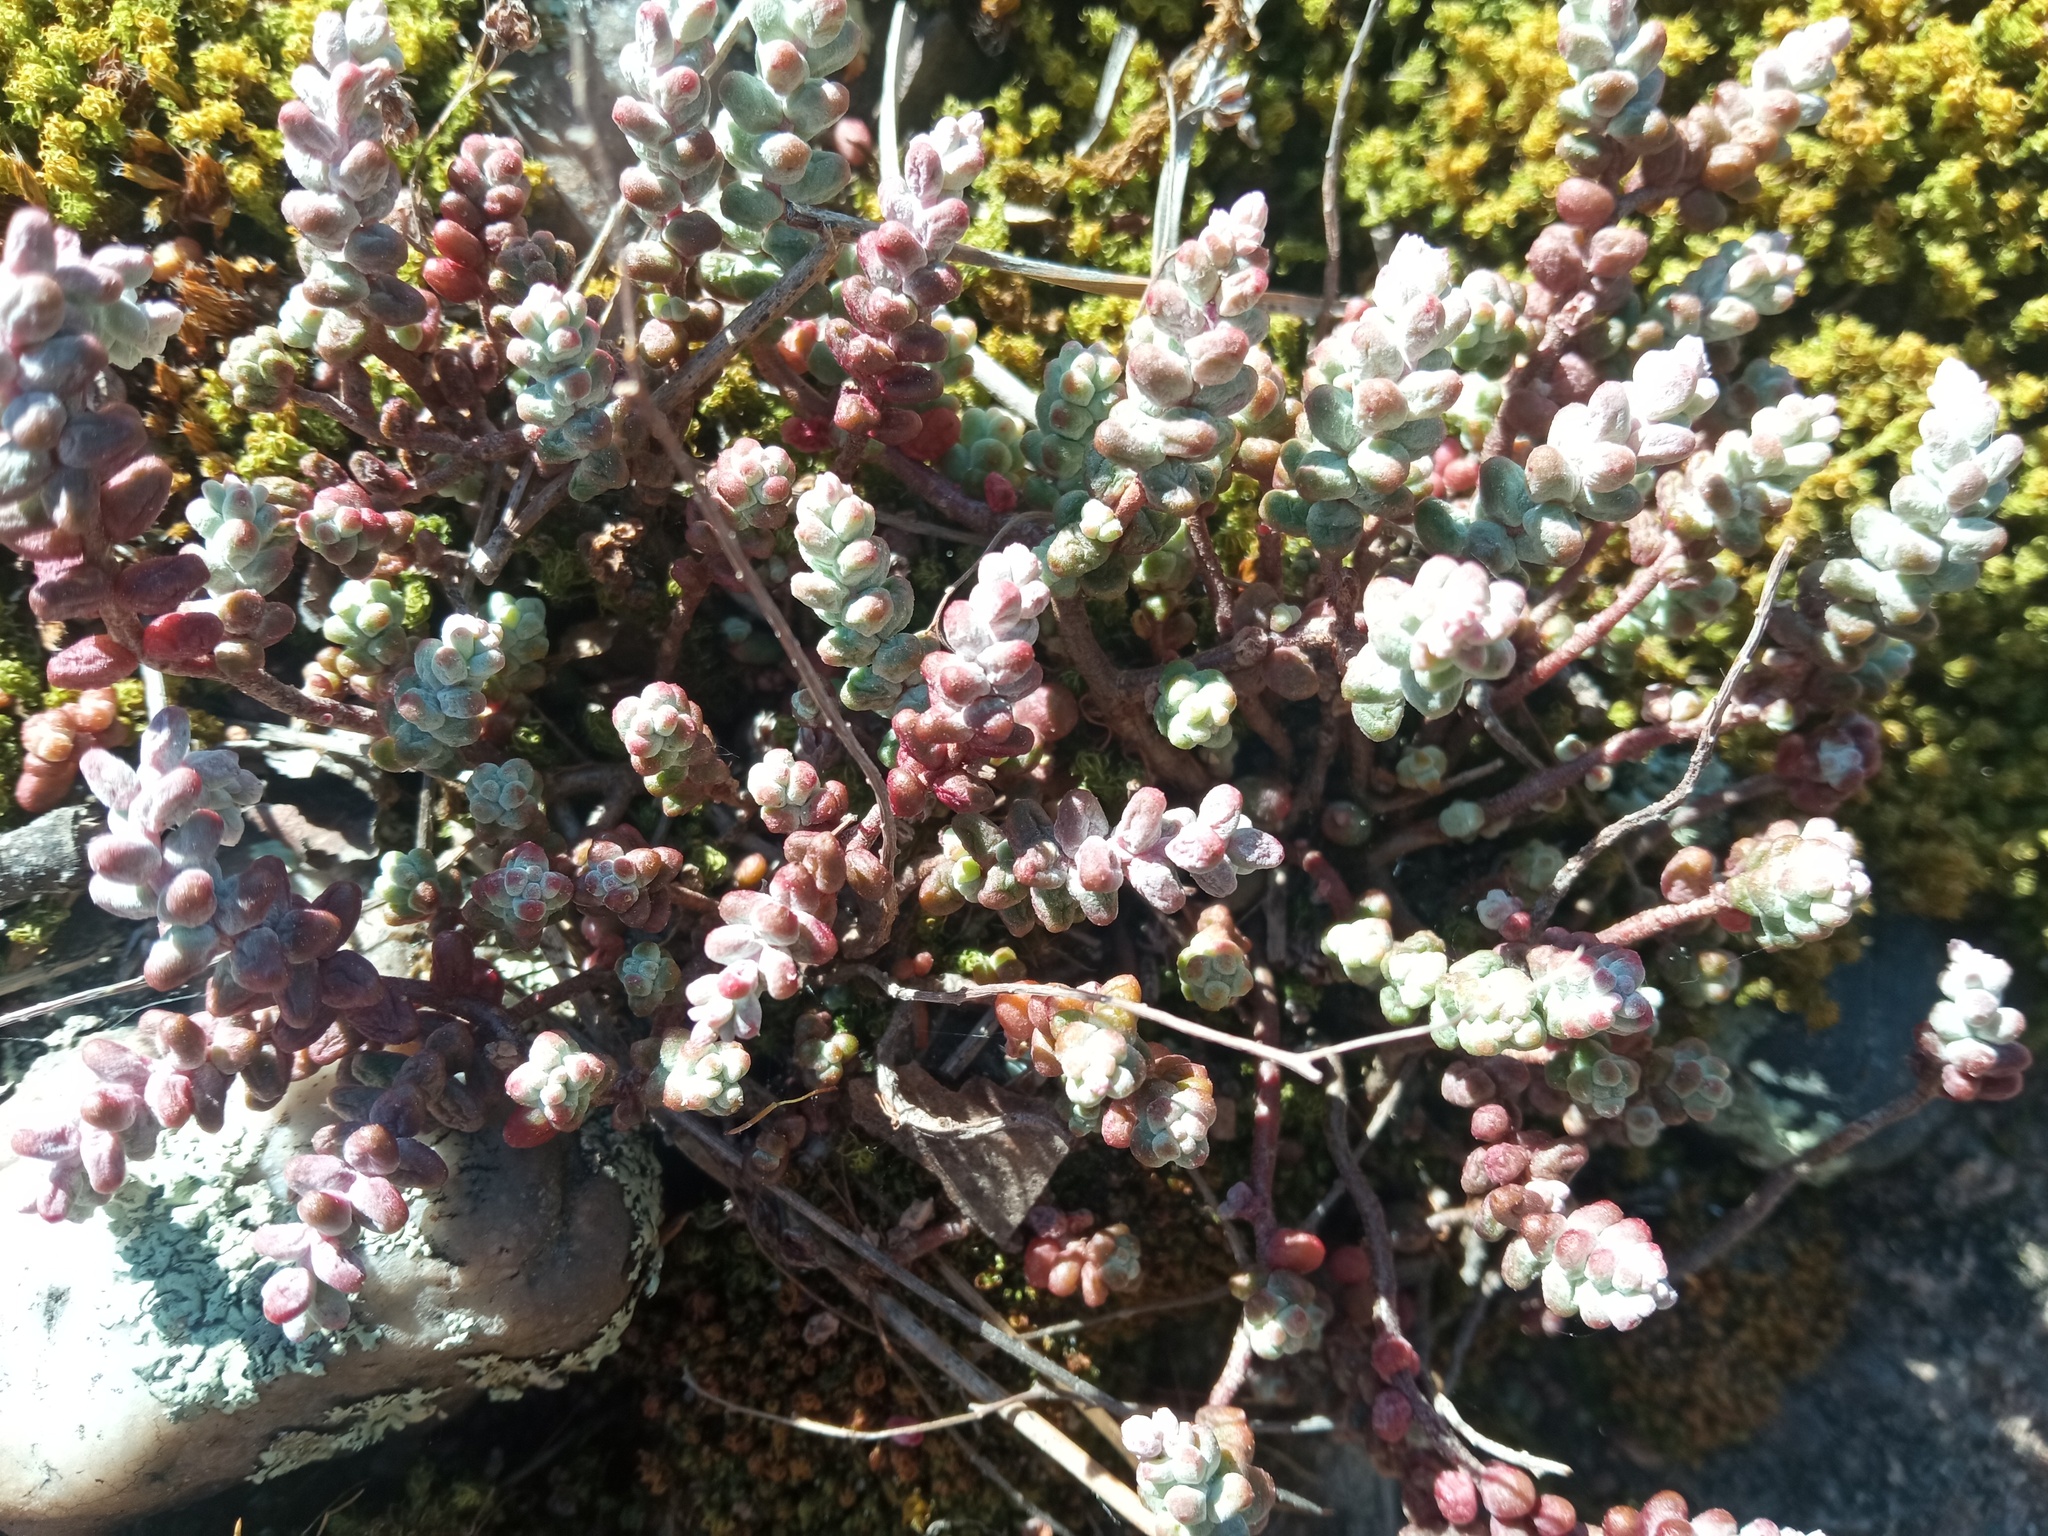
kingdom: Plantae
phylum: Tracheophyta
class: Magnoliopsida
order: Saxifragales
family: Crassulaceae
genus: Sedum
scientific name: Sedum brevifolium
